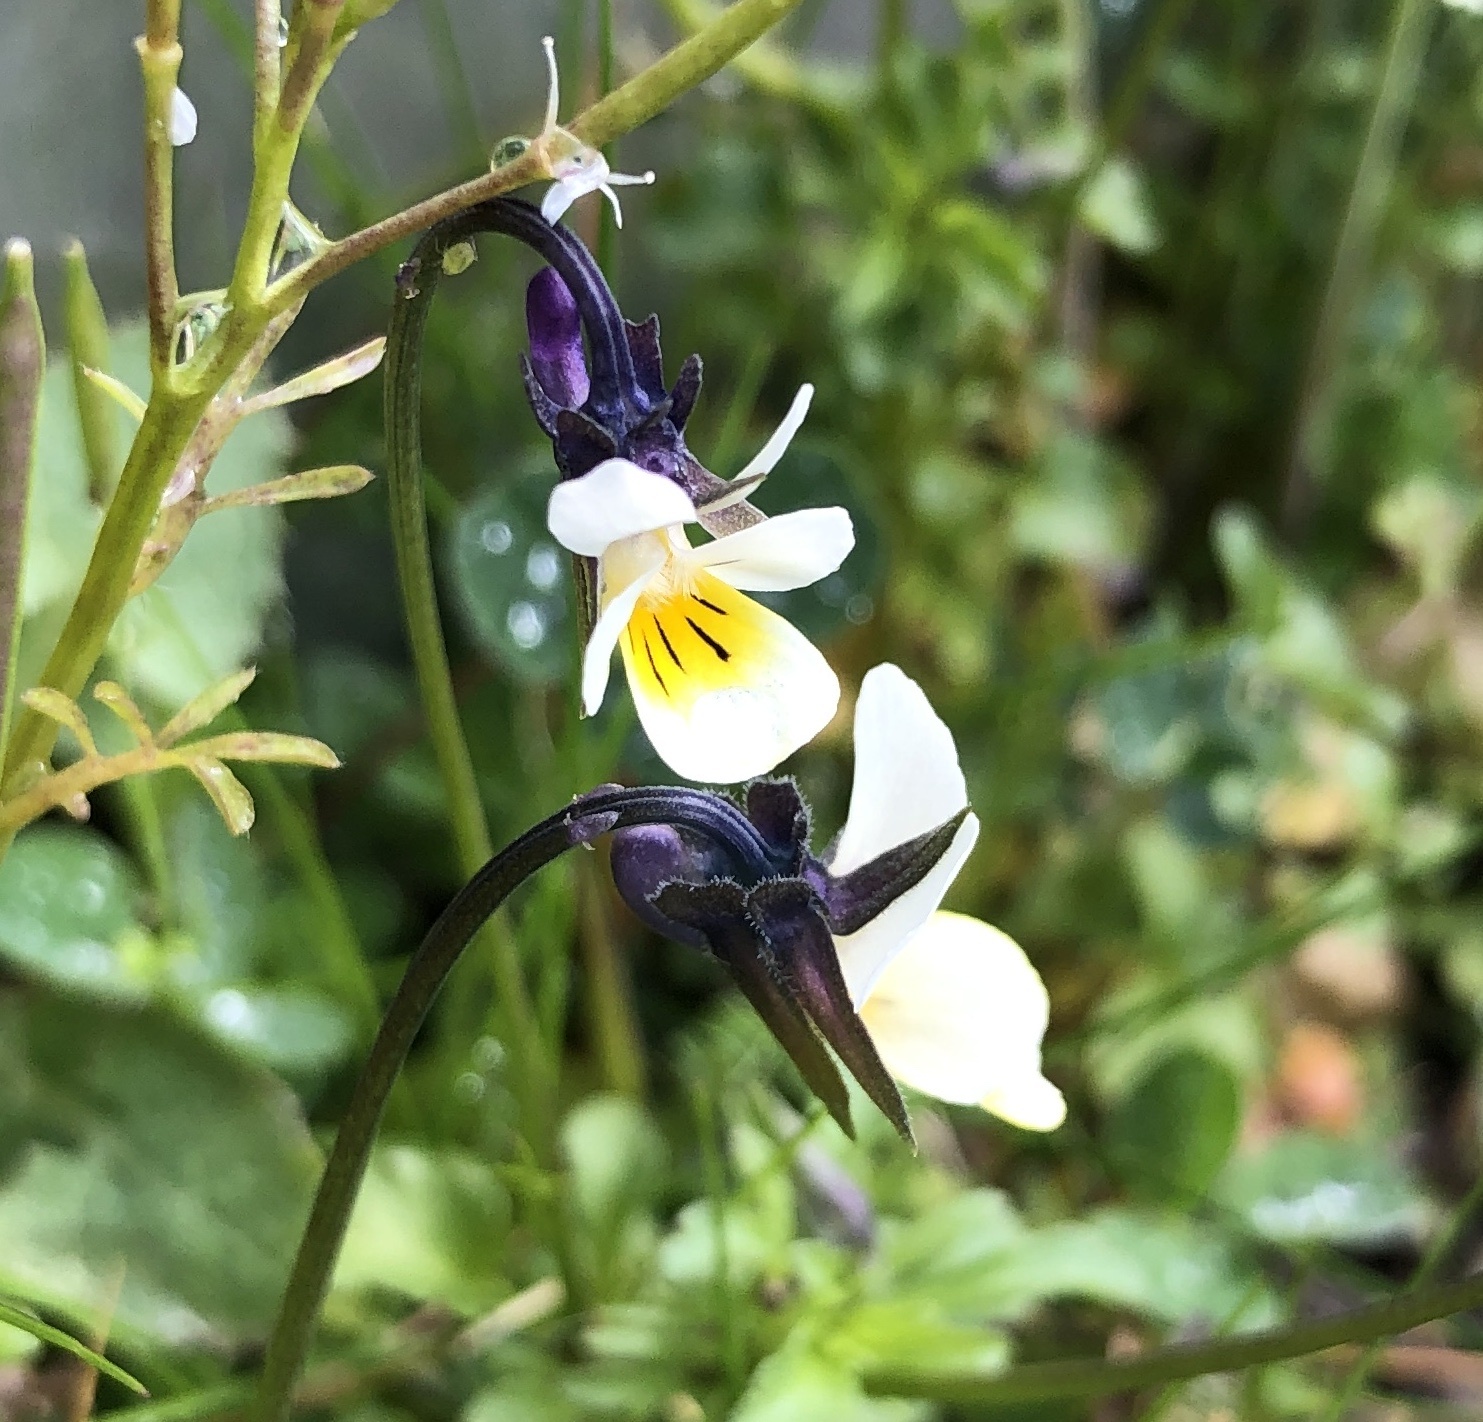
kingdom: Plantae
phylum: Tracheophyta
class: Magnoliopsida
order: Malpighiales
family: Violaceae
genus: Viola
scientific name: Viola arvensis
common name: Field pansy
